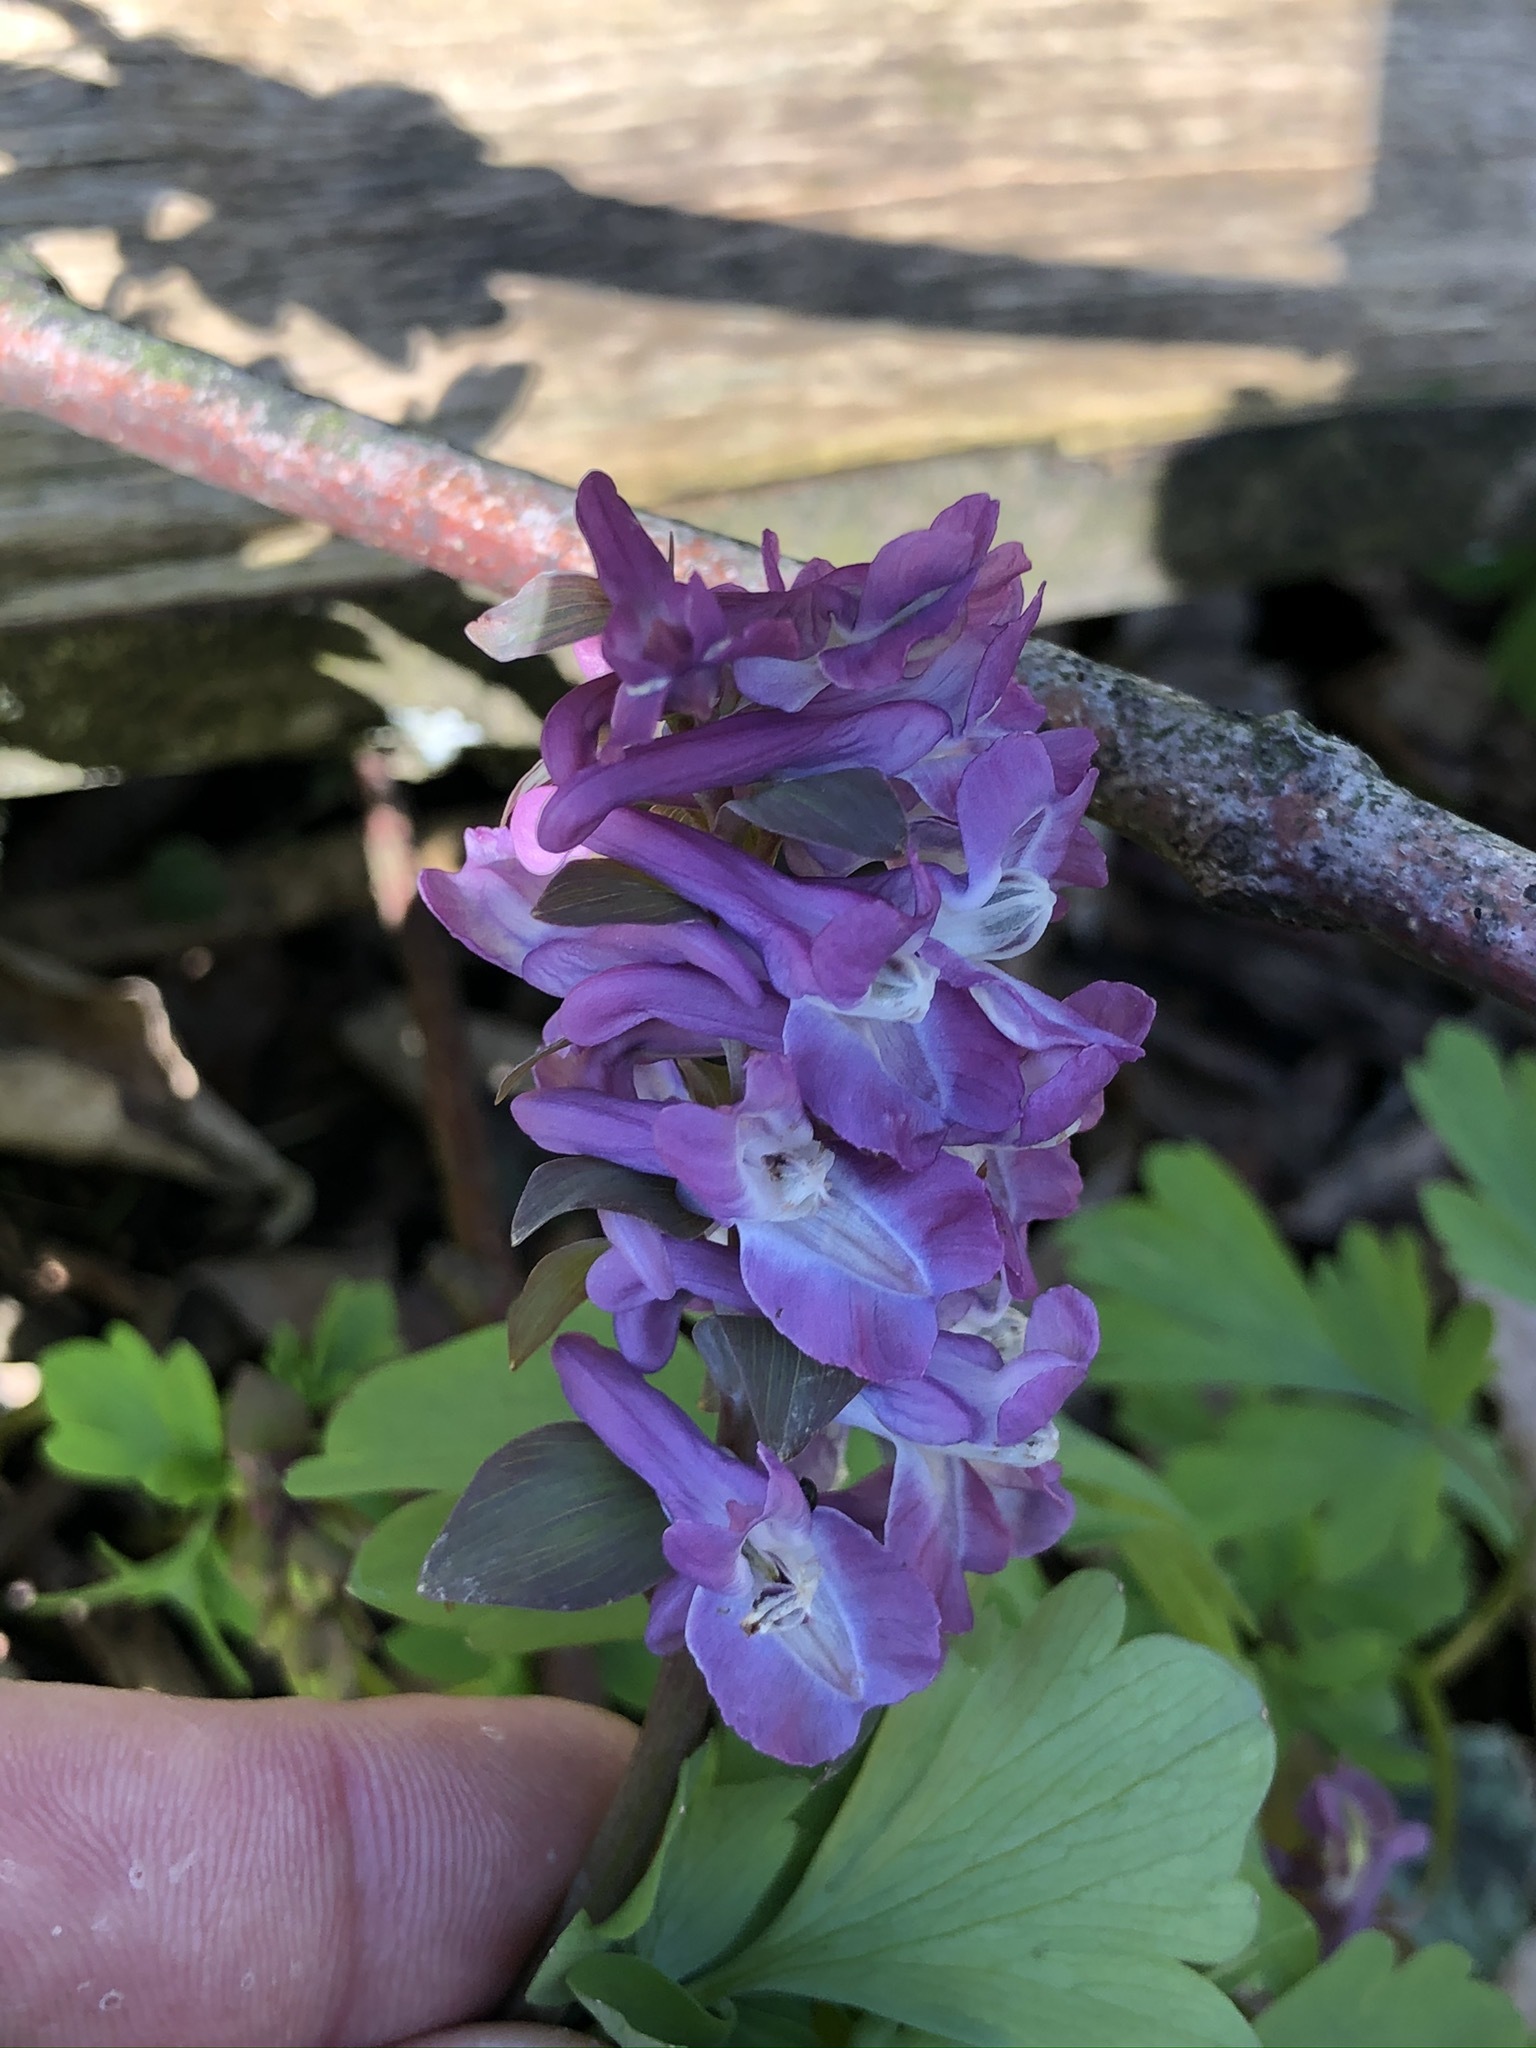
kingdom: Plantae
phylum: Tracheophyta
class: Magnoliopsida
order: Ranunculales
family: Papaveraceae
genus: Corydalis
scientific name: Corydalis cava
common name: Hollowroot
